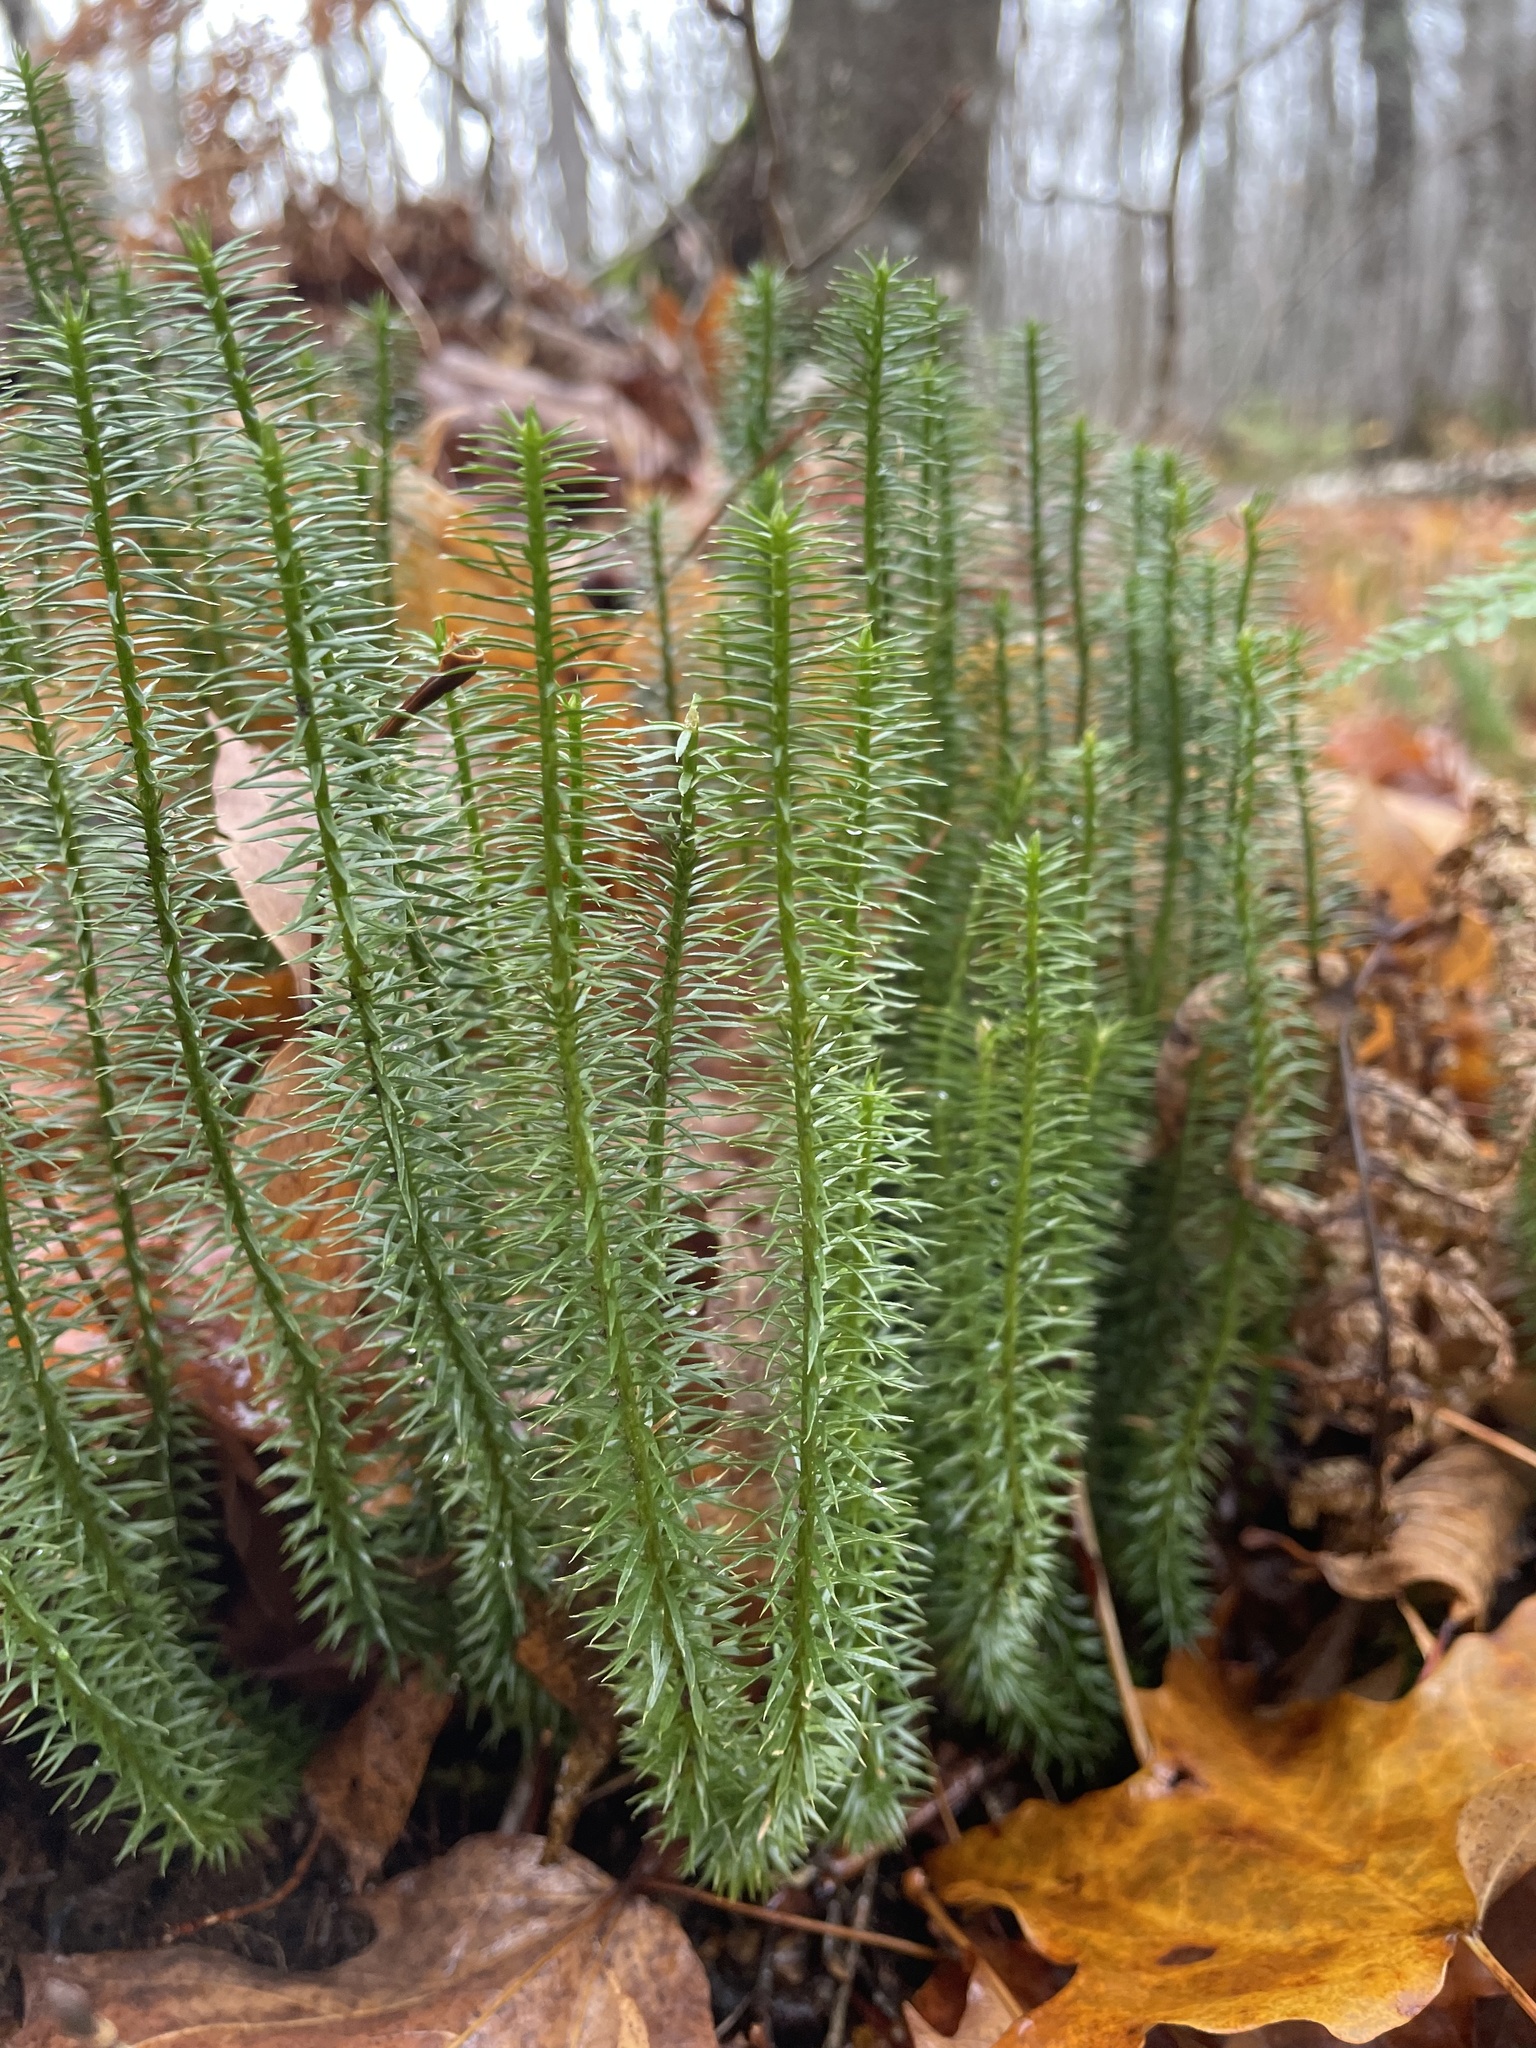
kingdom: Plantae
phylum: Tracheophyta
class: Lycopodiopsida
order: Lycopodiales
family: Lycopodiaceae
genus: Spinulum
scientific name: Spinulum annotinum
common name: Interrupted club-moss
